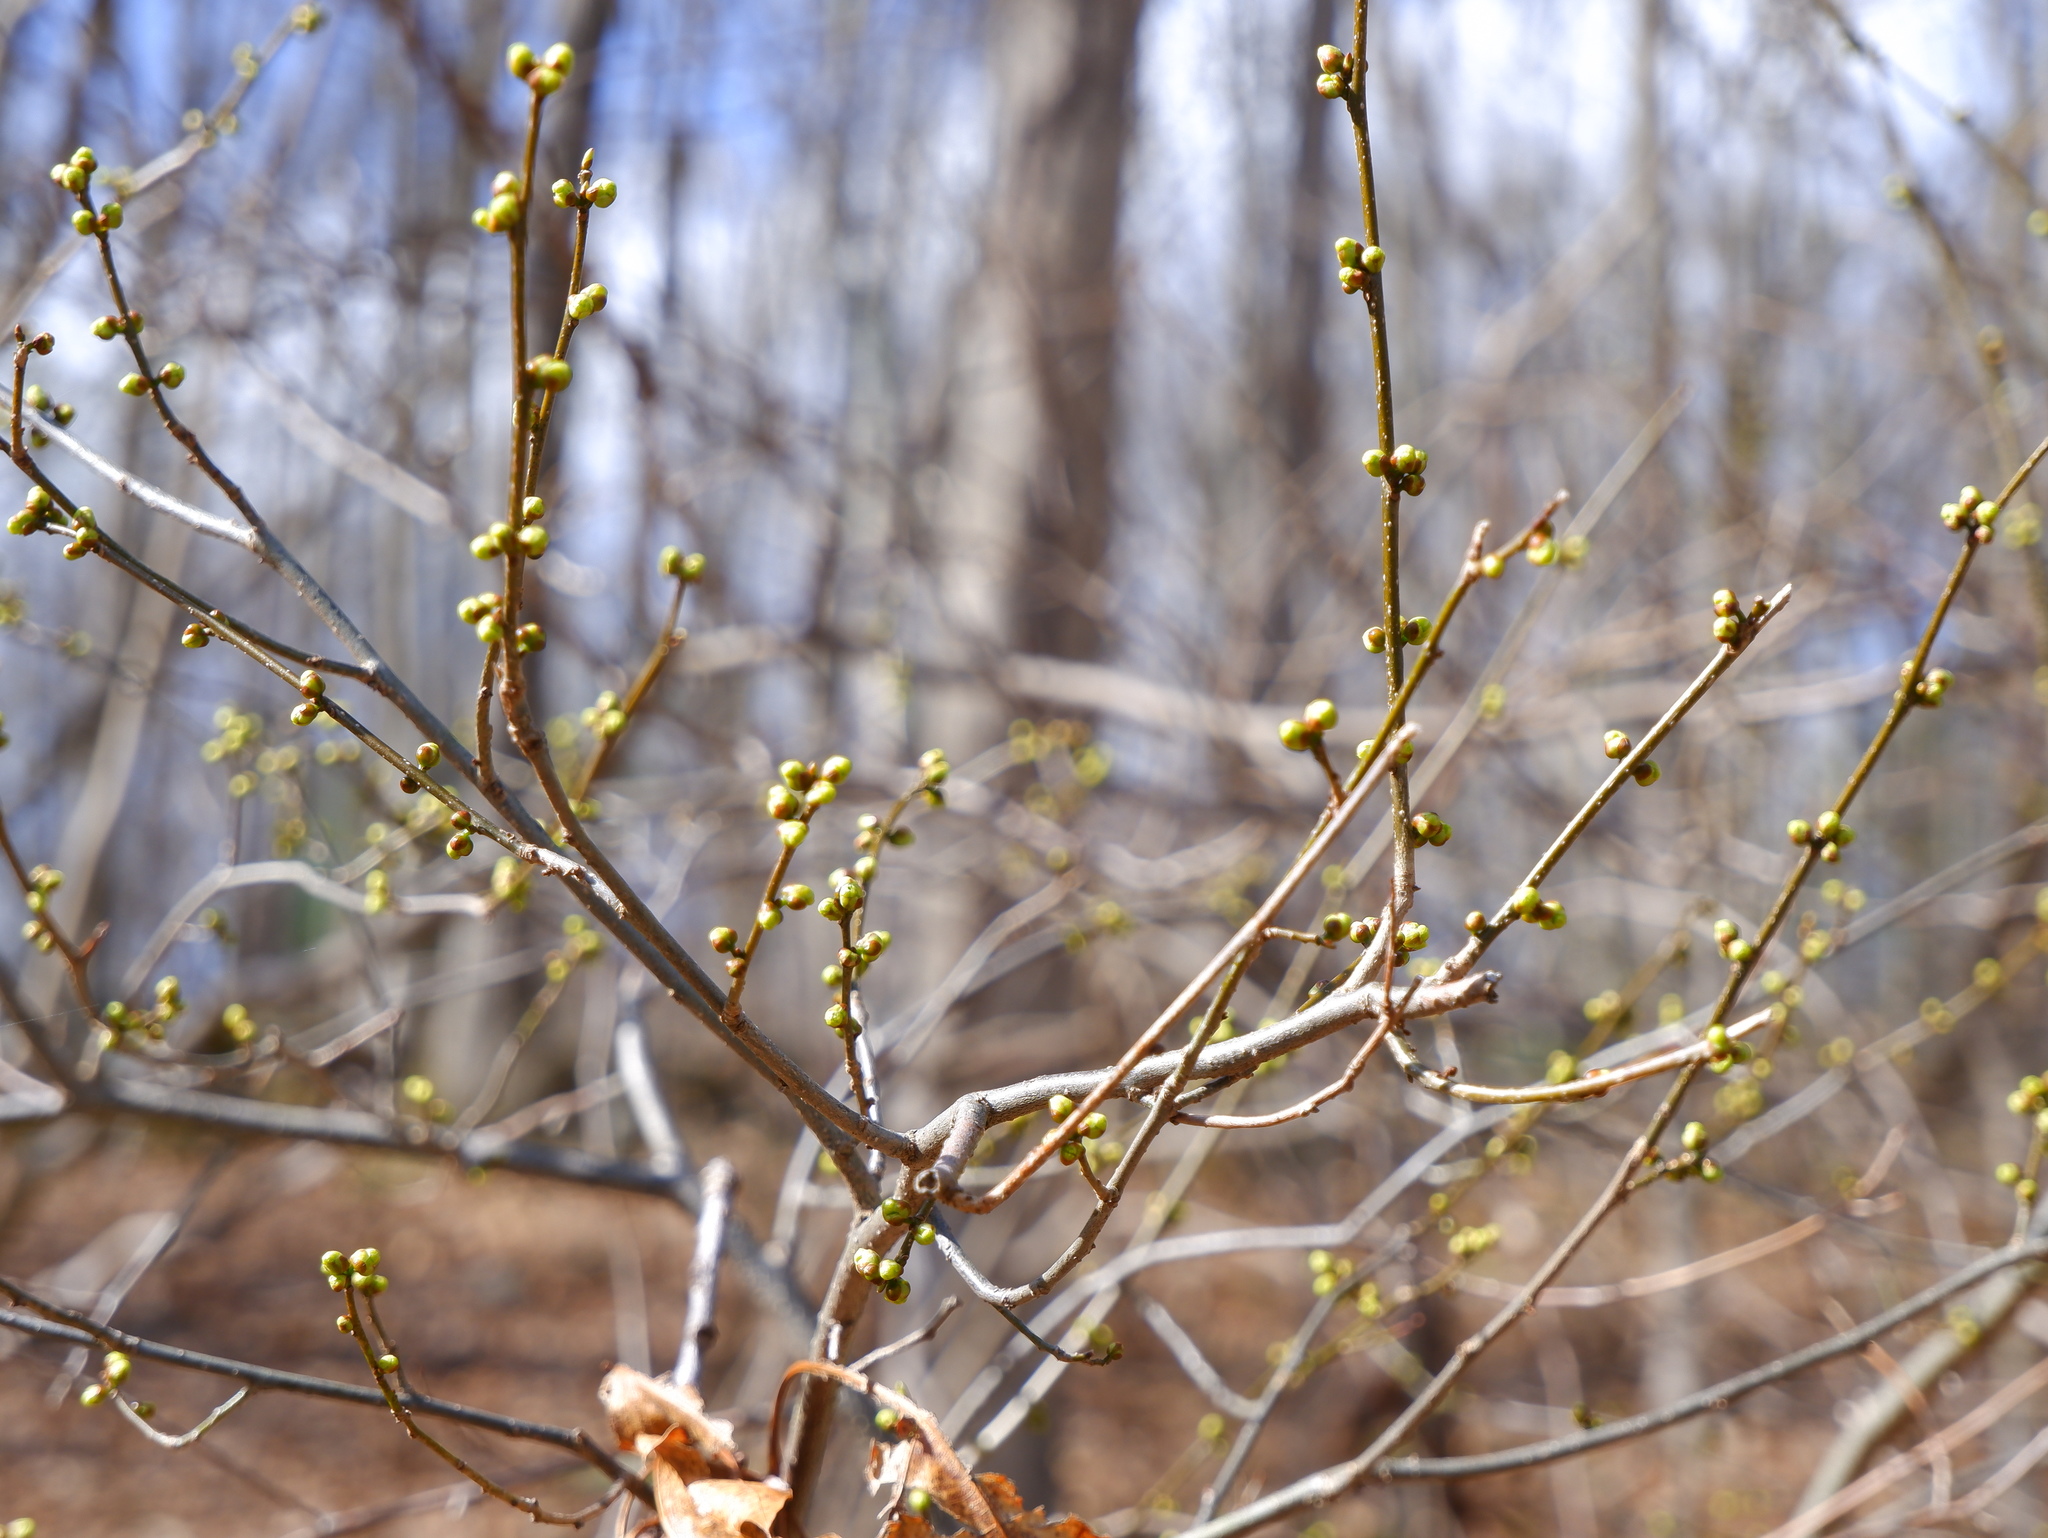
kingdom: Plantae
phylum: Tracheophyta
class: Magnoliopsida
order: Laurales
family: Lauraceae
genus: Lindera
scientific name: Lindera benzoin
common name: Spicebush
